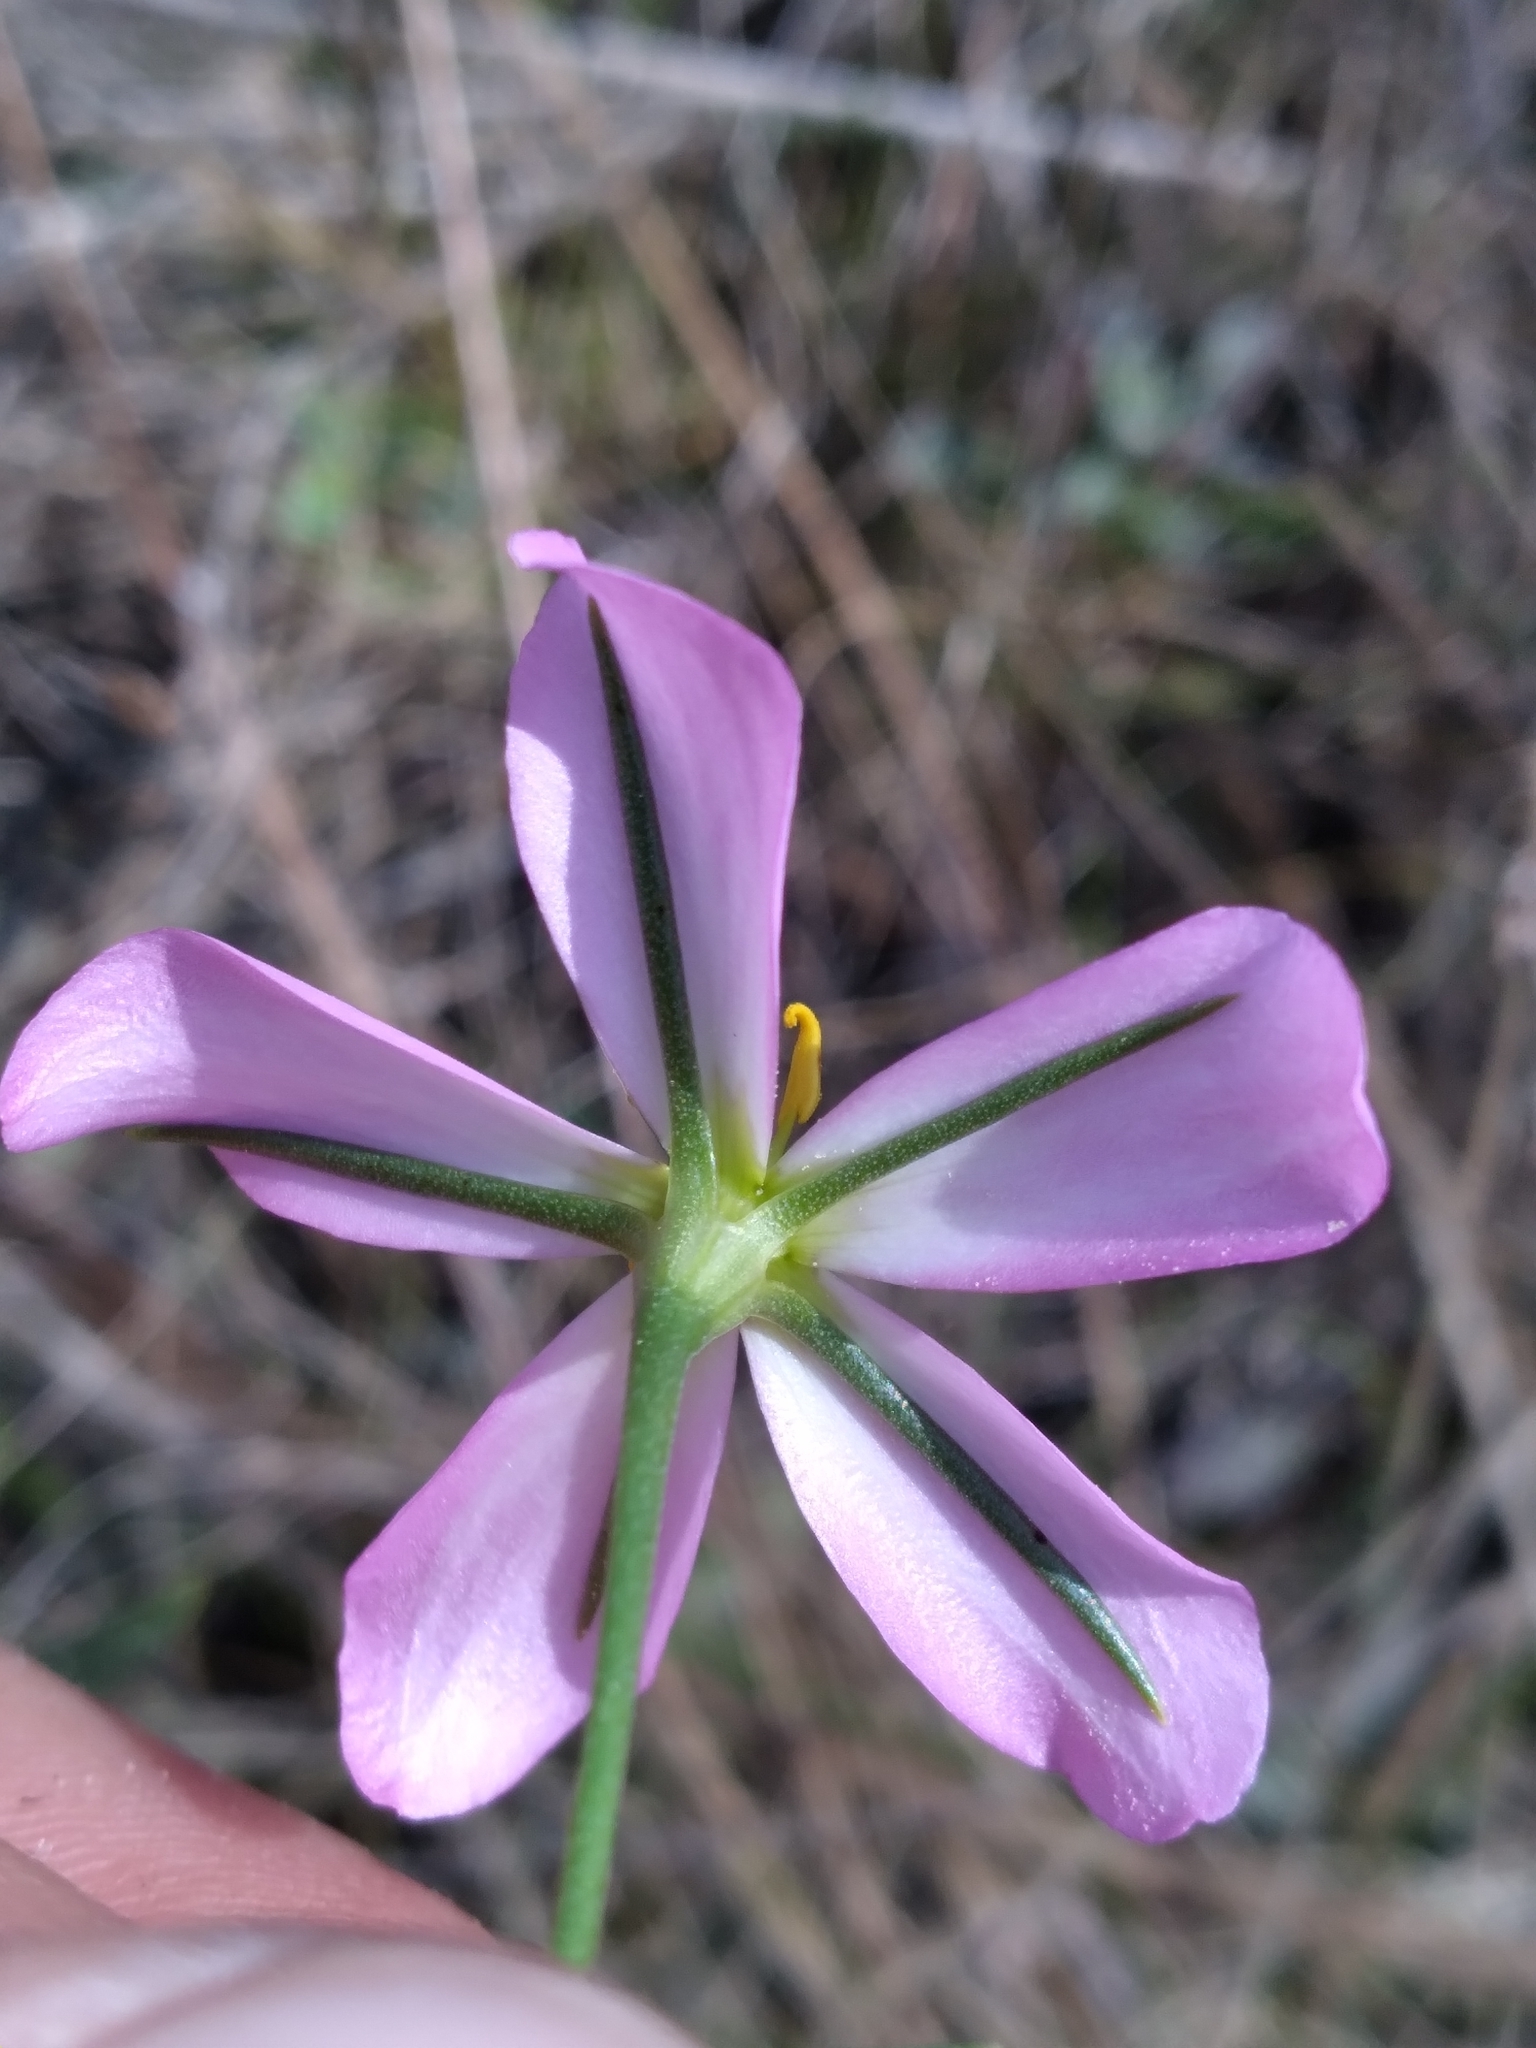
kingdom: Plantae
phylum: Tracheophyta
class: Magnoliopsida
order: Gentianales
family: Gentianaceae
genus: Sabatia
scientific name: Sabatia stellaris
